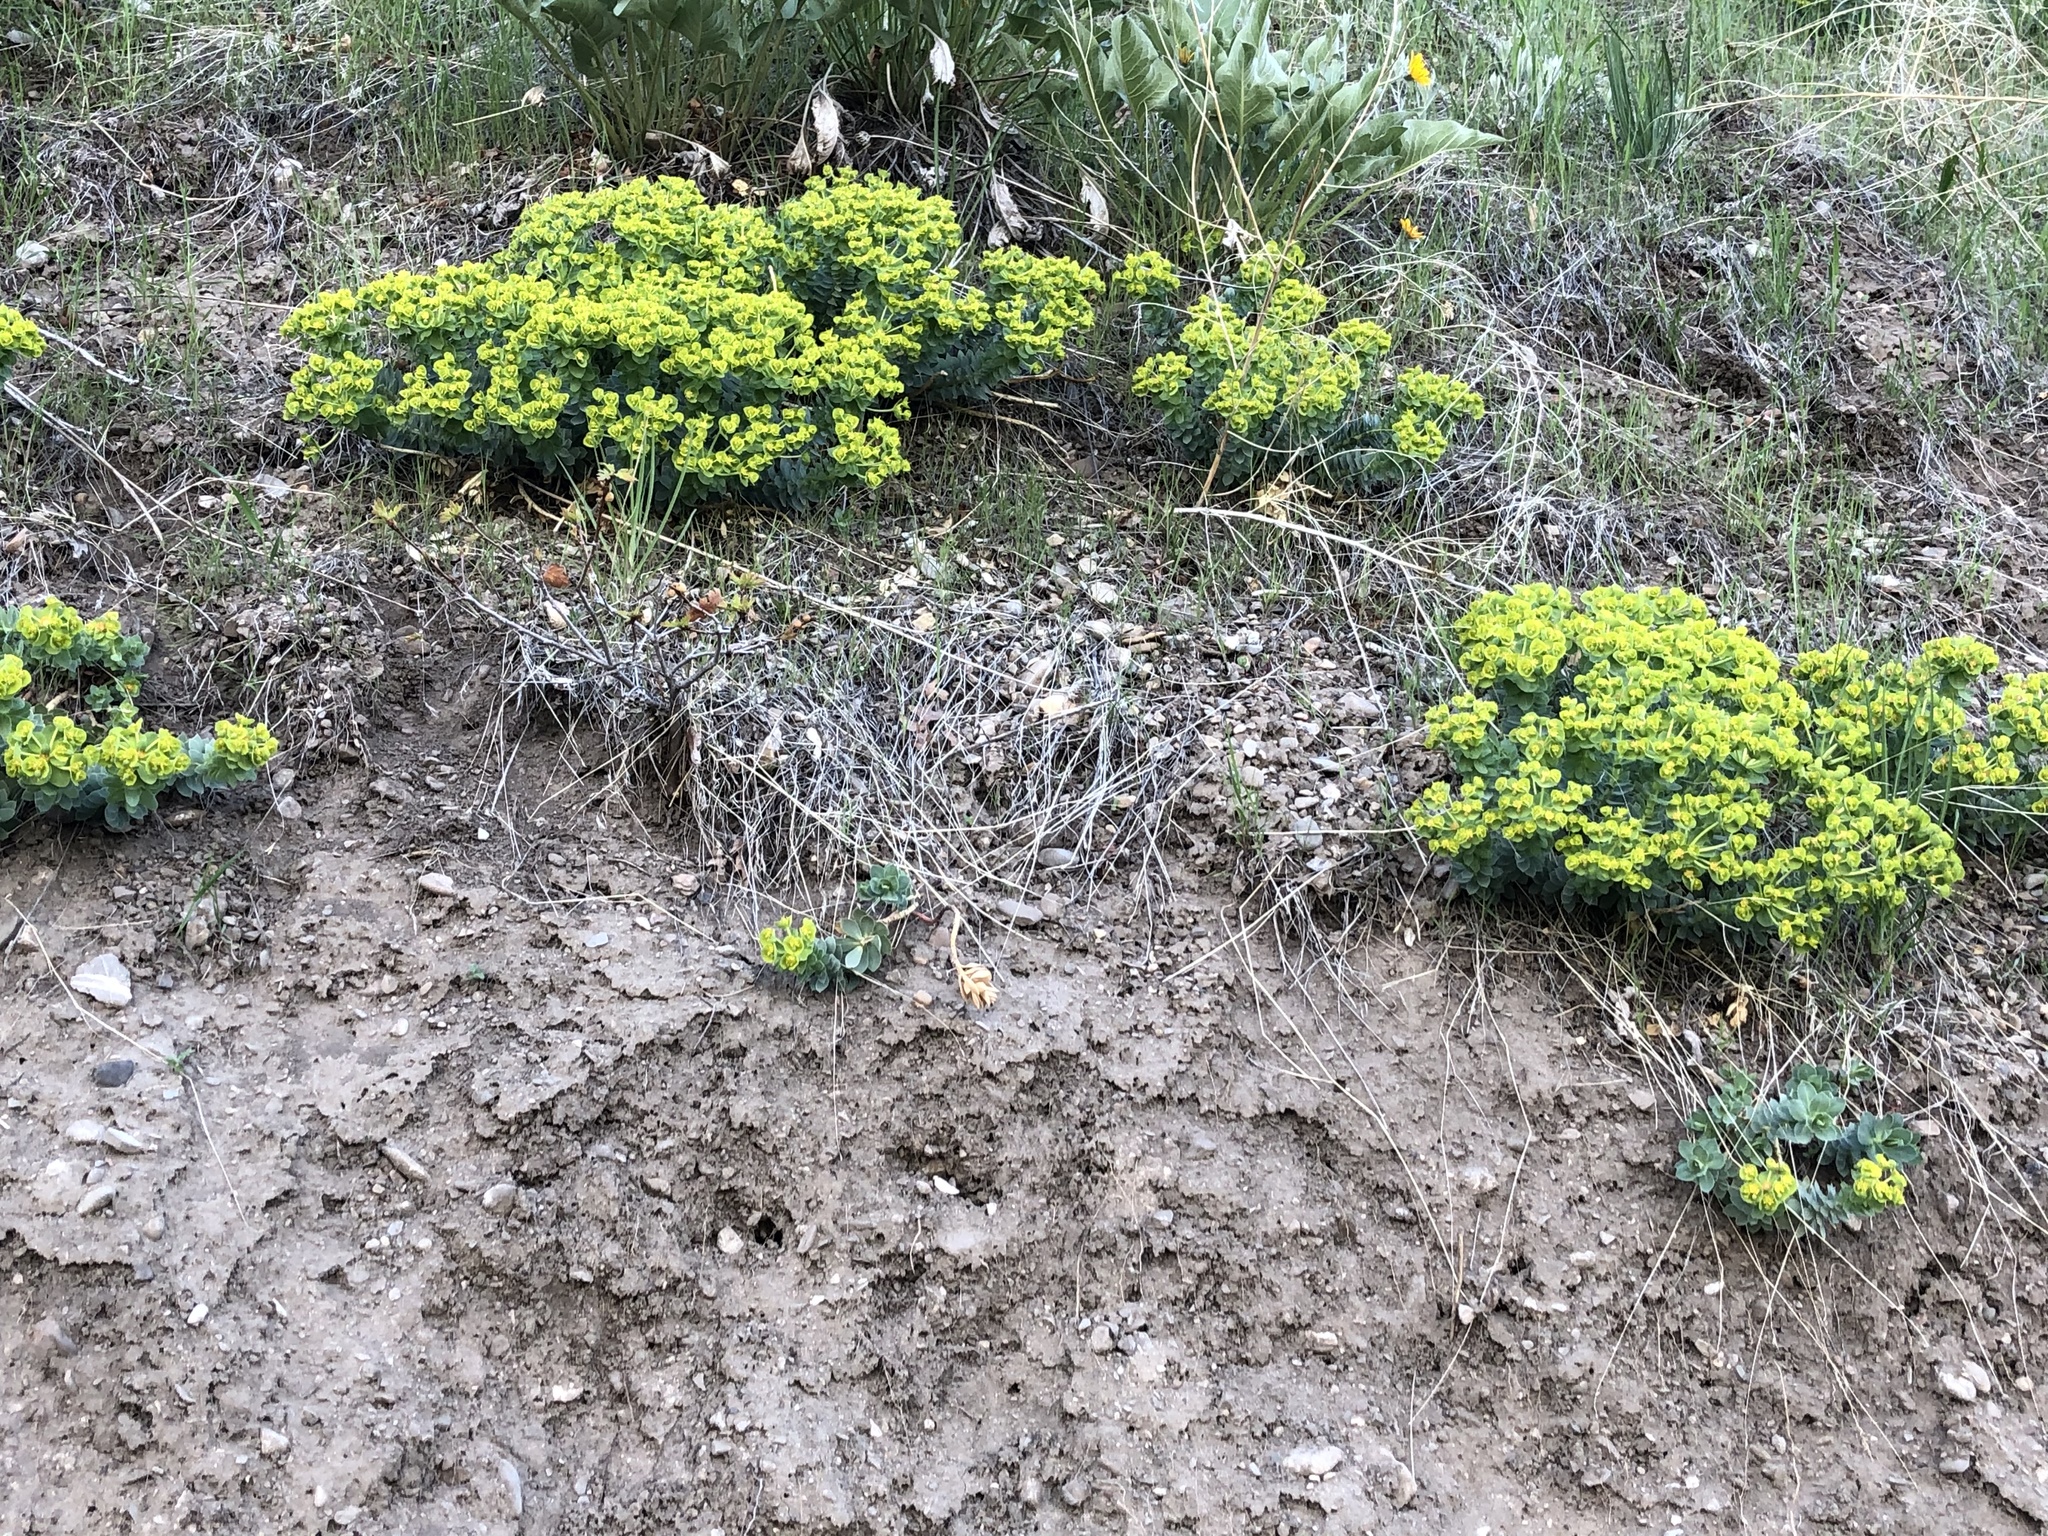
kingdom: Plantae
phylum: Tracheophyta
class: Magnoliopsida
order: Malpighiales
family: Euphorbiaceae
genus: Euphorbia
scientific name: Euphorbia myrsinites
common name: Myrtle spurge
